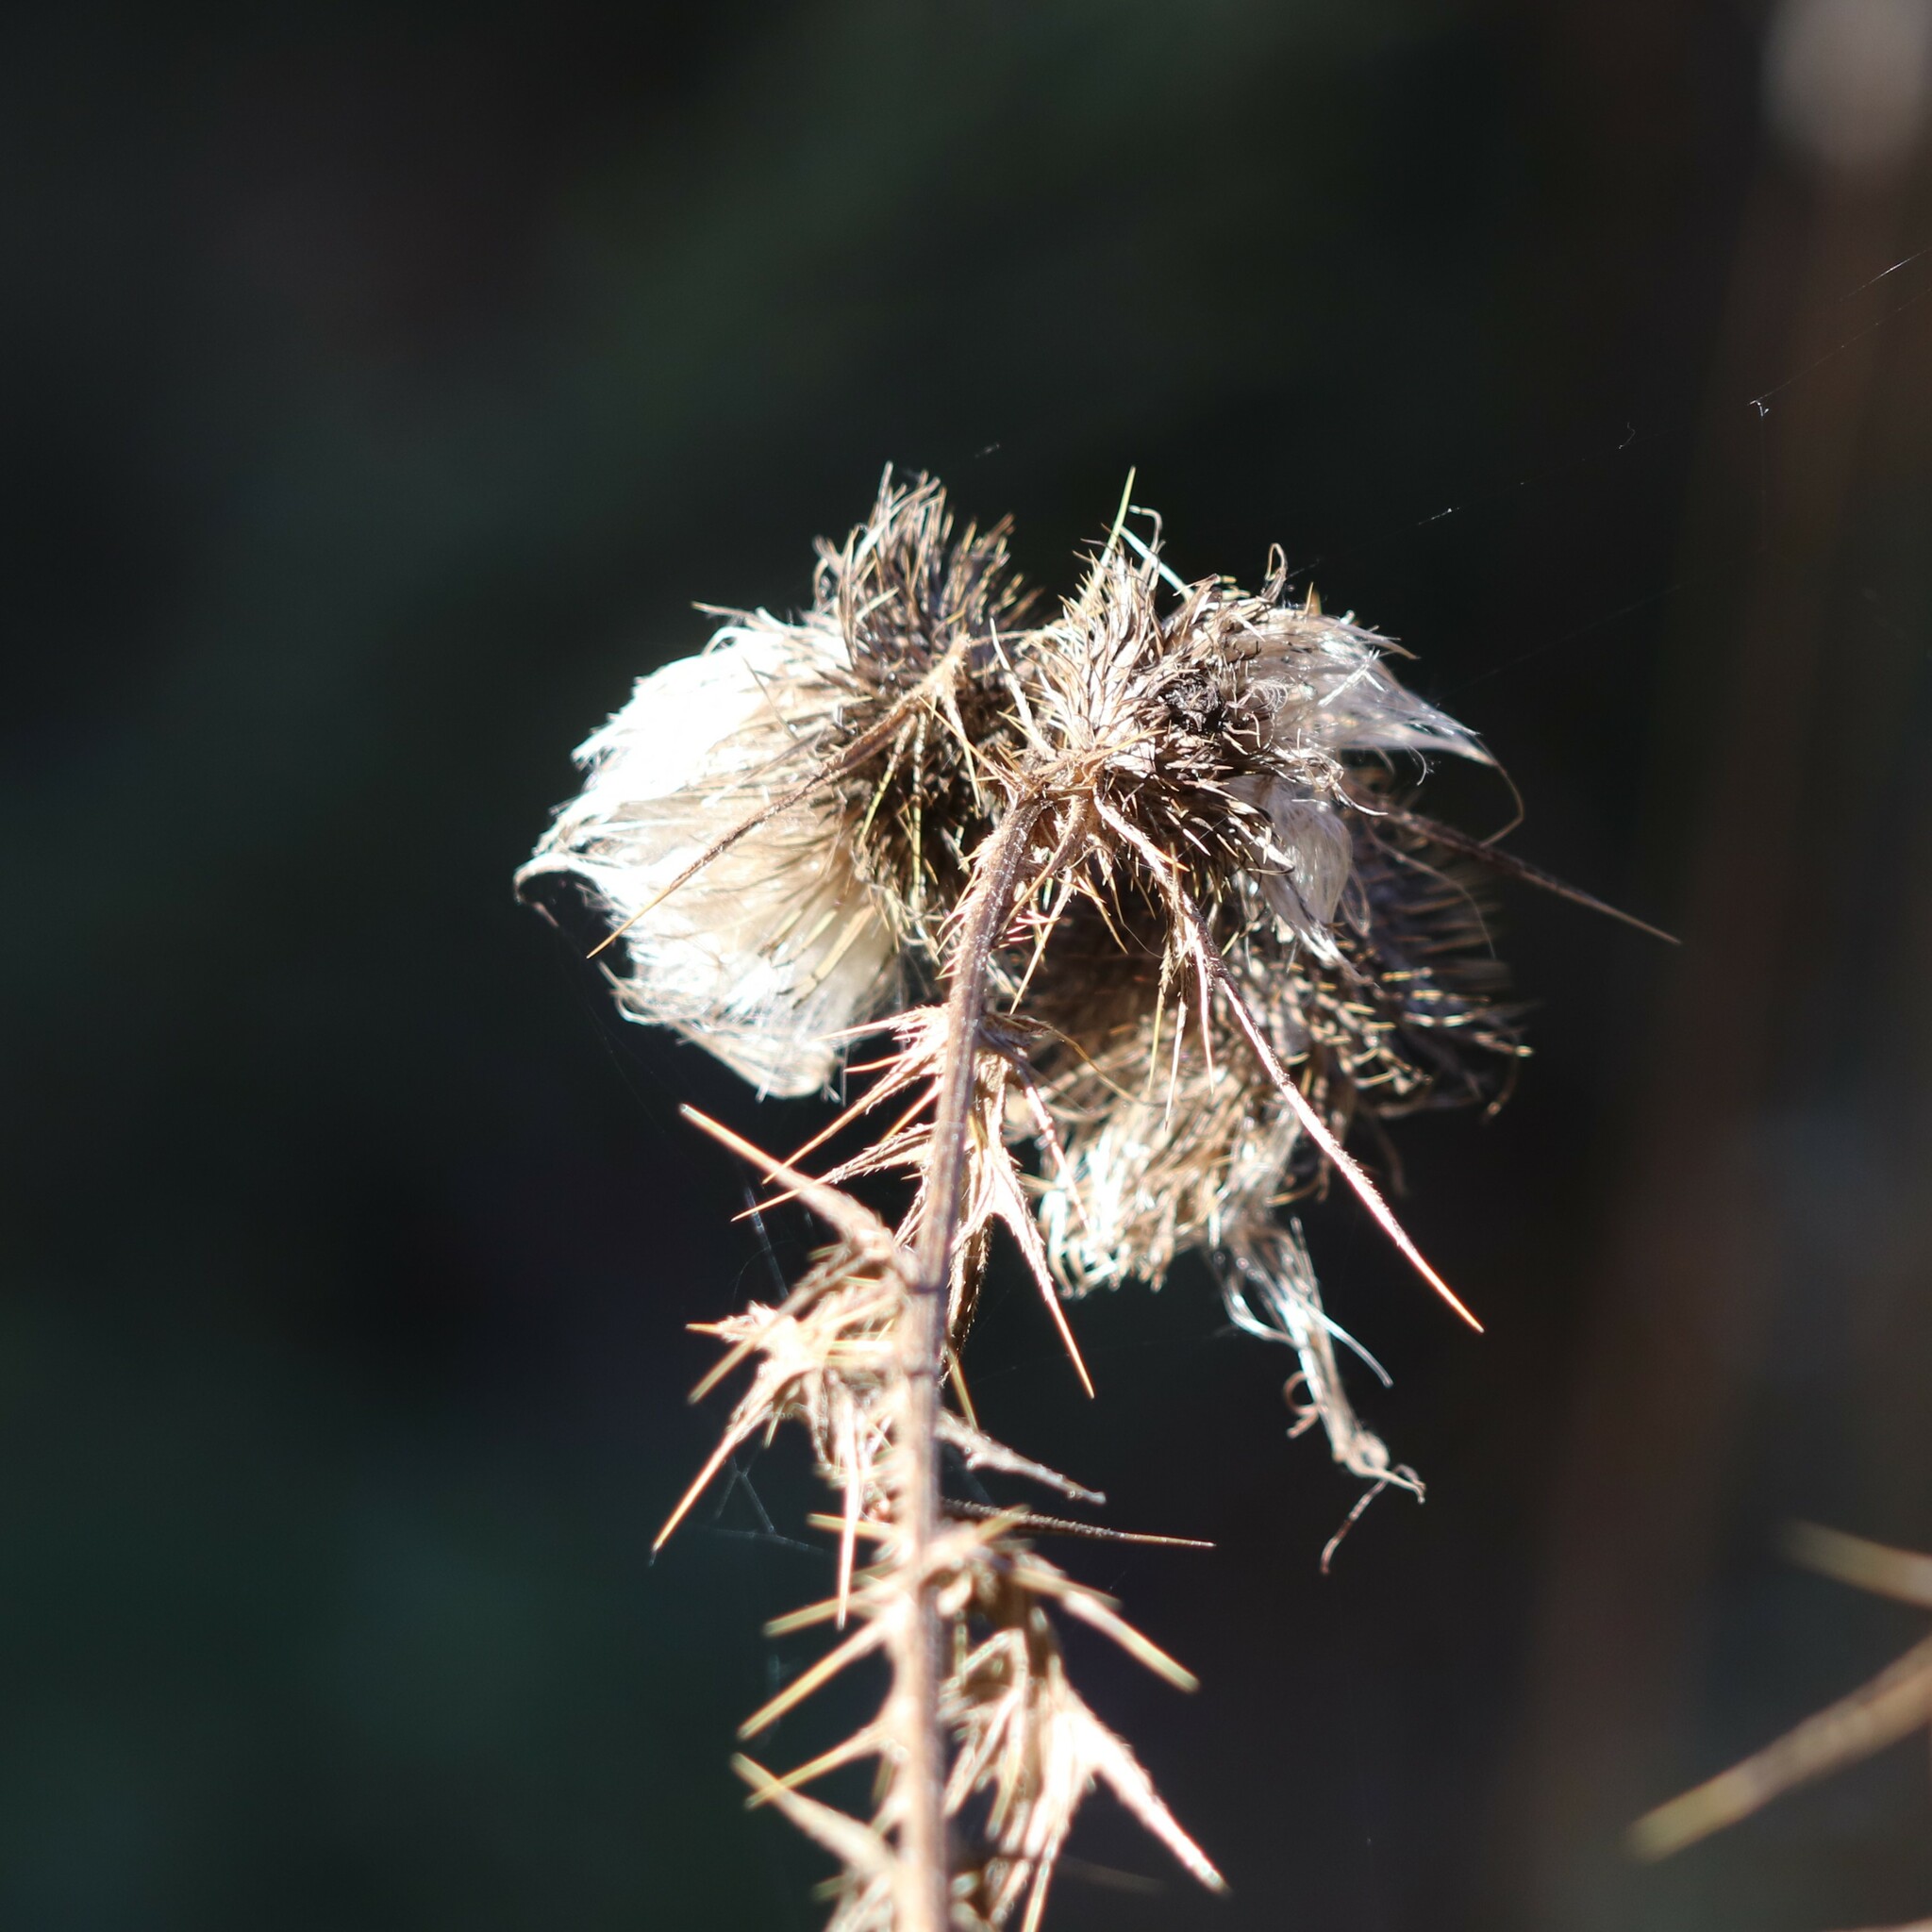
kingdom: Plantae
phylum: Tracheophyta
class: Magnoliopsida
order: Asterales
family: Asteraceae
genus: Cirsium
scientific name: Cirsium vulgare
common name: Bull thistle
